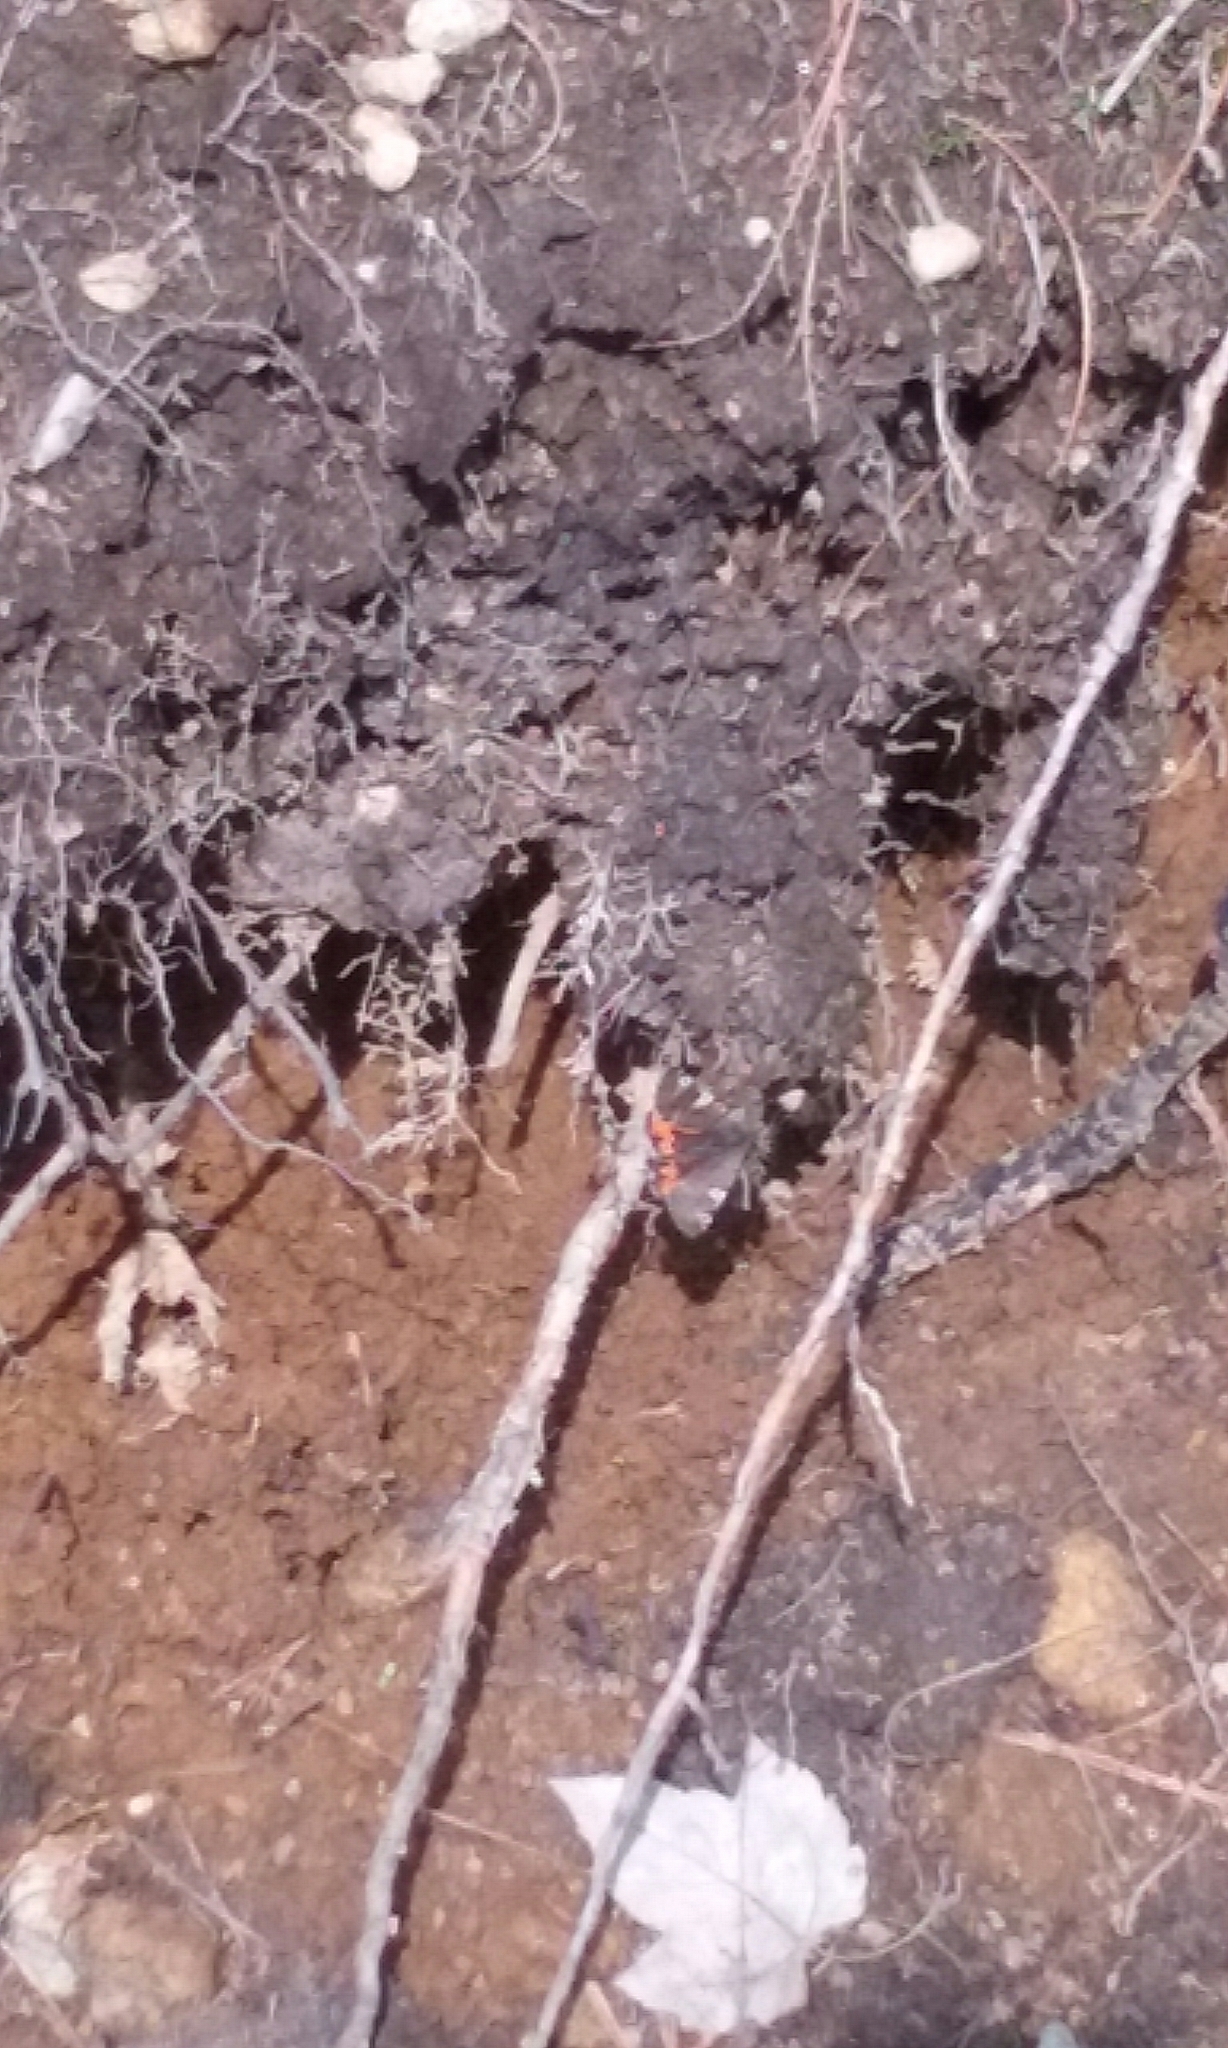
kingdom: Animalia
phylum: Arthropoda
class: Insecta
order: Lepidoptera
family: Geometridae
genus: Archiearis
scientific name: Archiearis infans
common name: First born geometer
